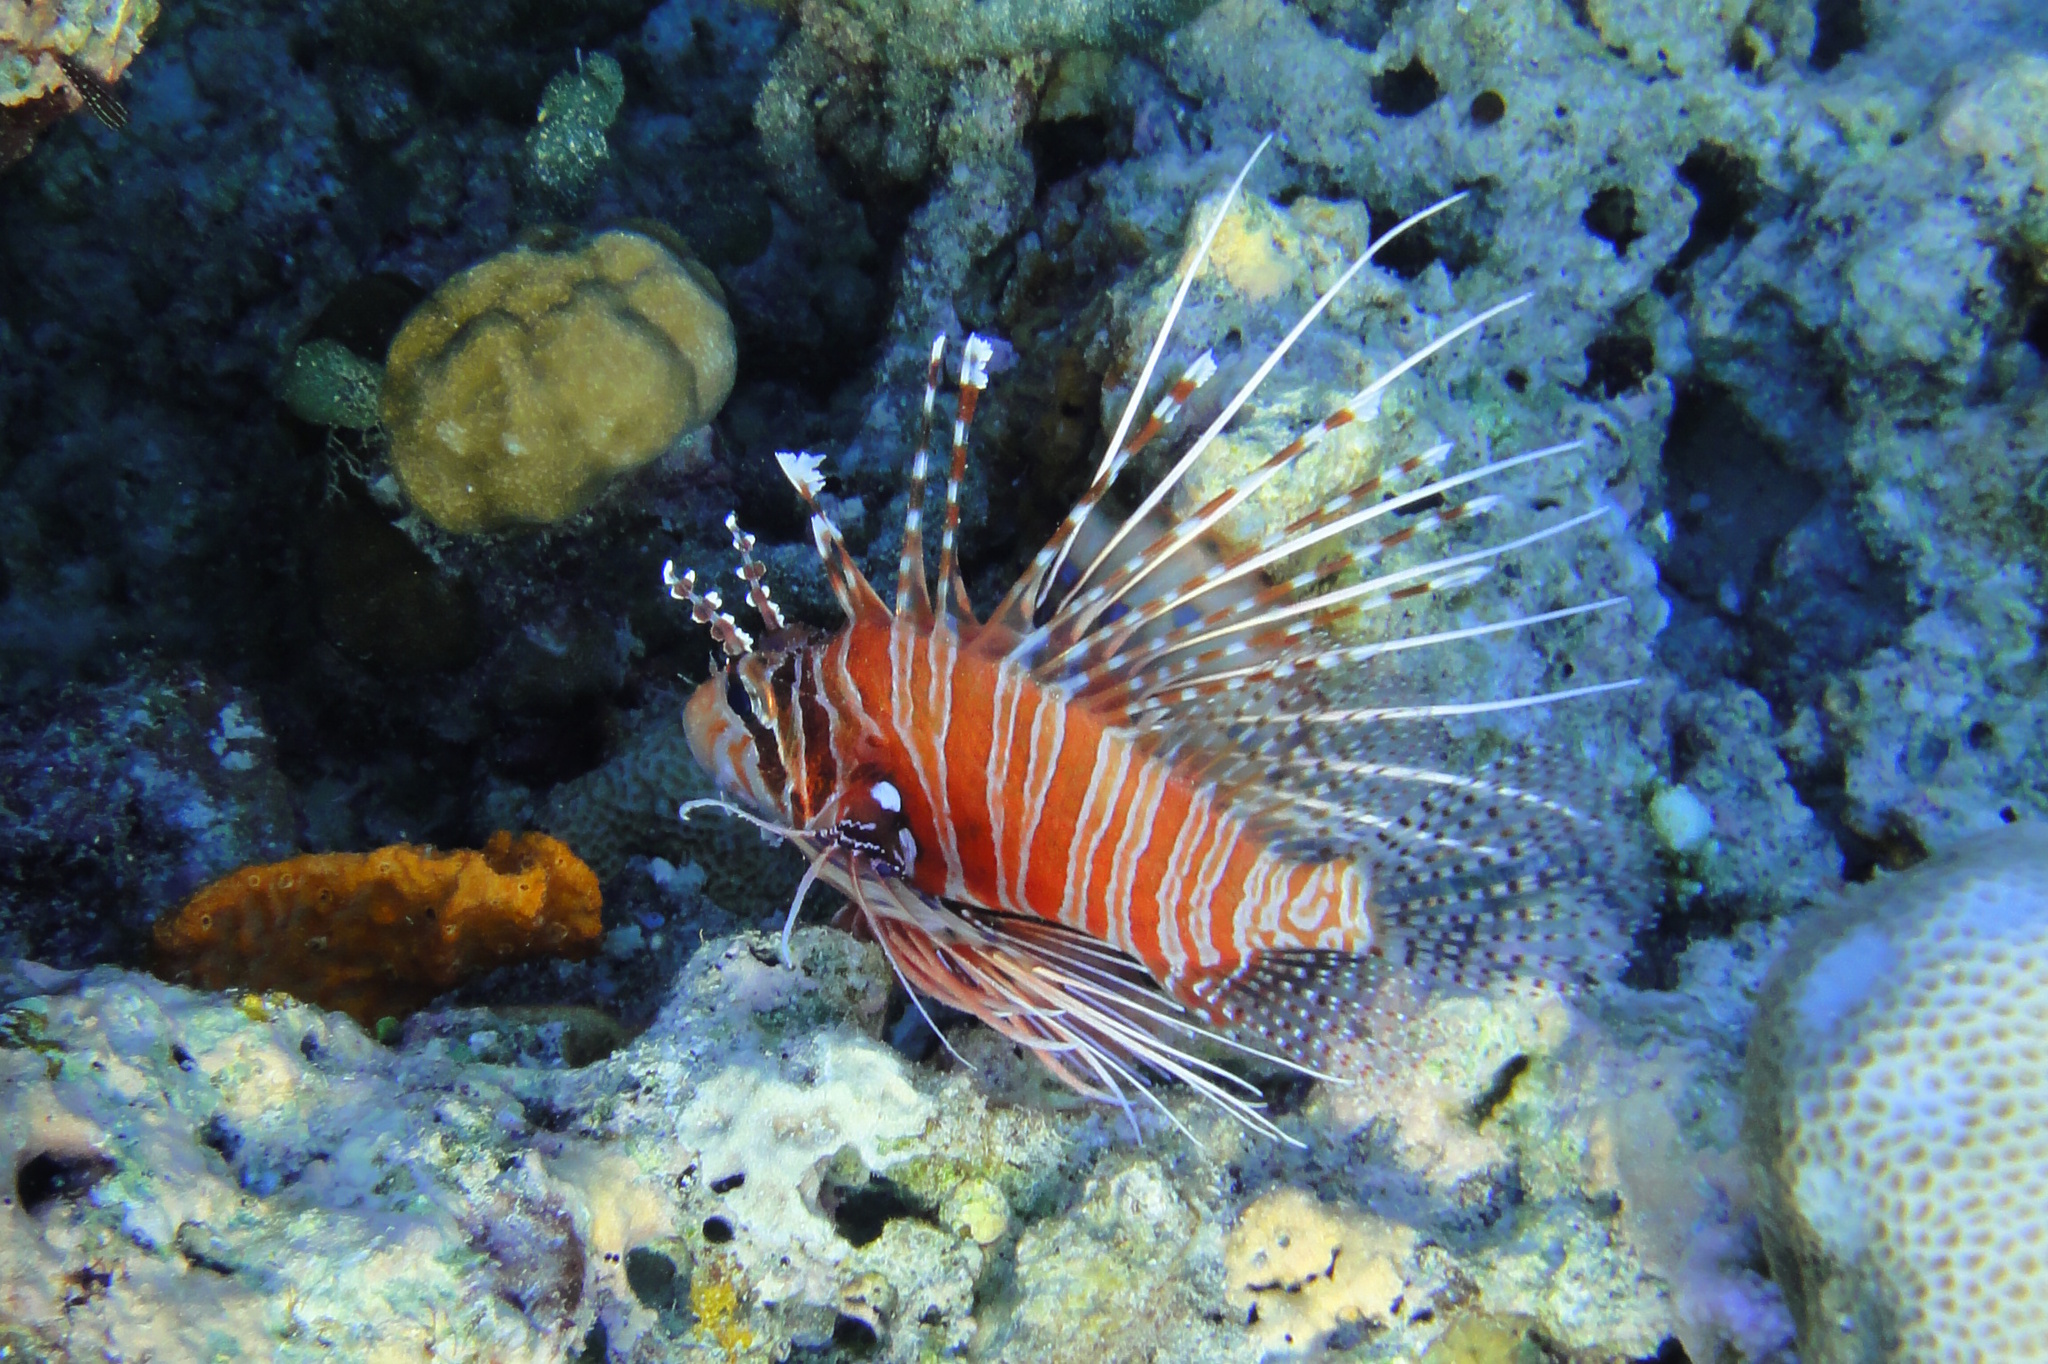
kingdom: Animalia
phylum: Chordata
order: Scorpaeniformes
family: Scorpaenidae
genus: Pterois
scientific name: Pterois antennata
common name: Spotfin lionfish
